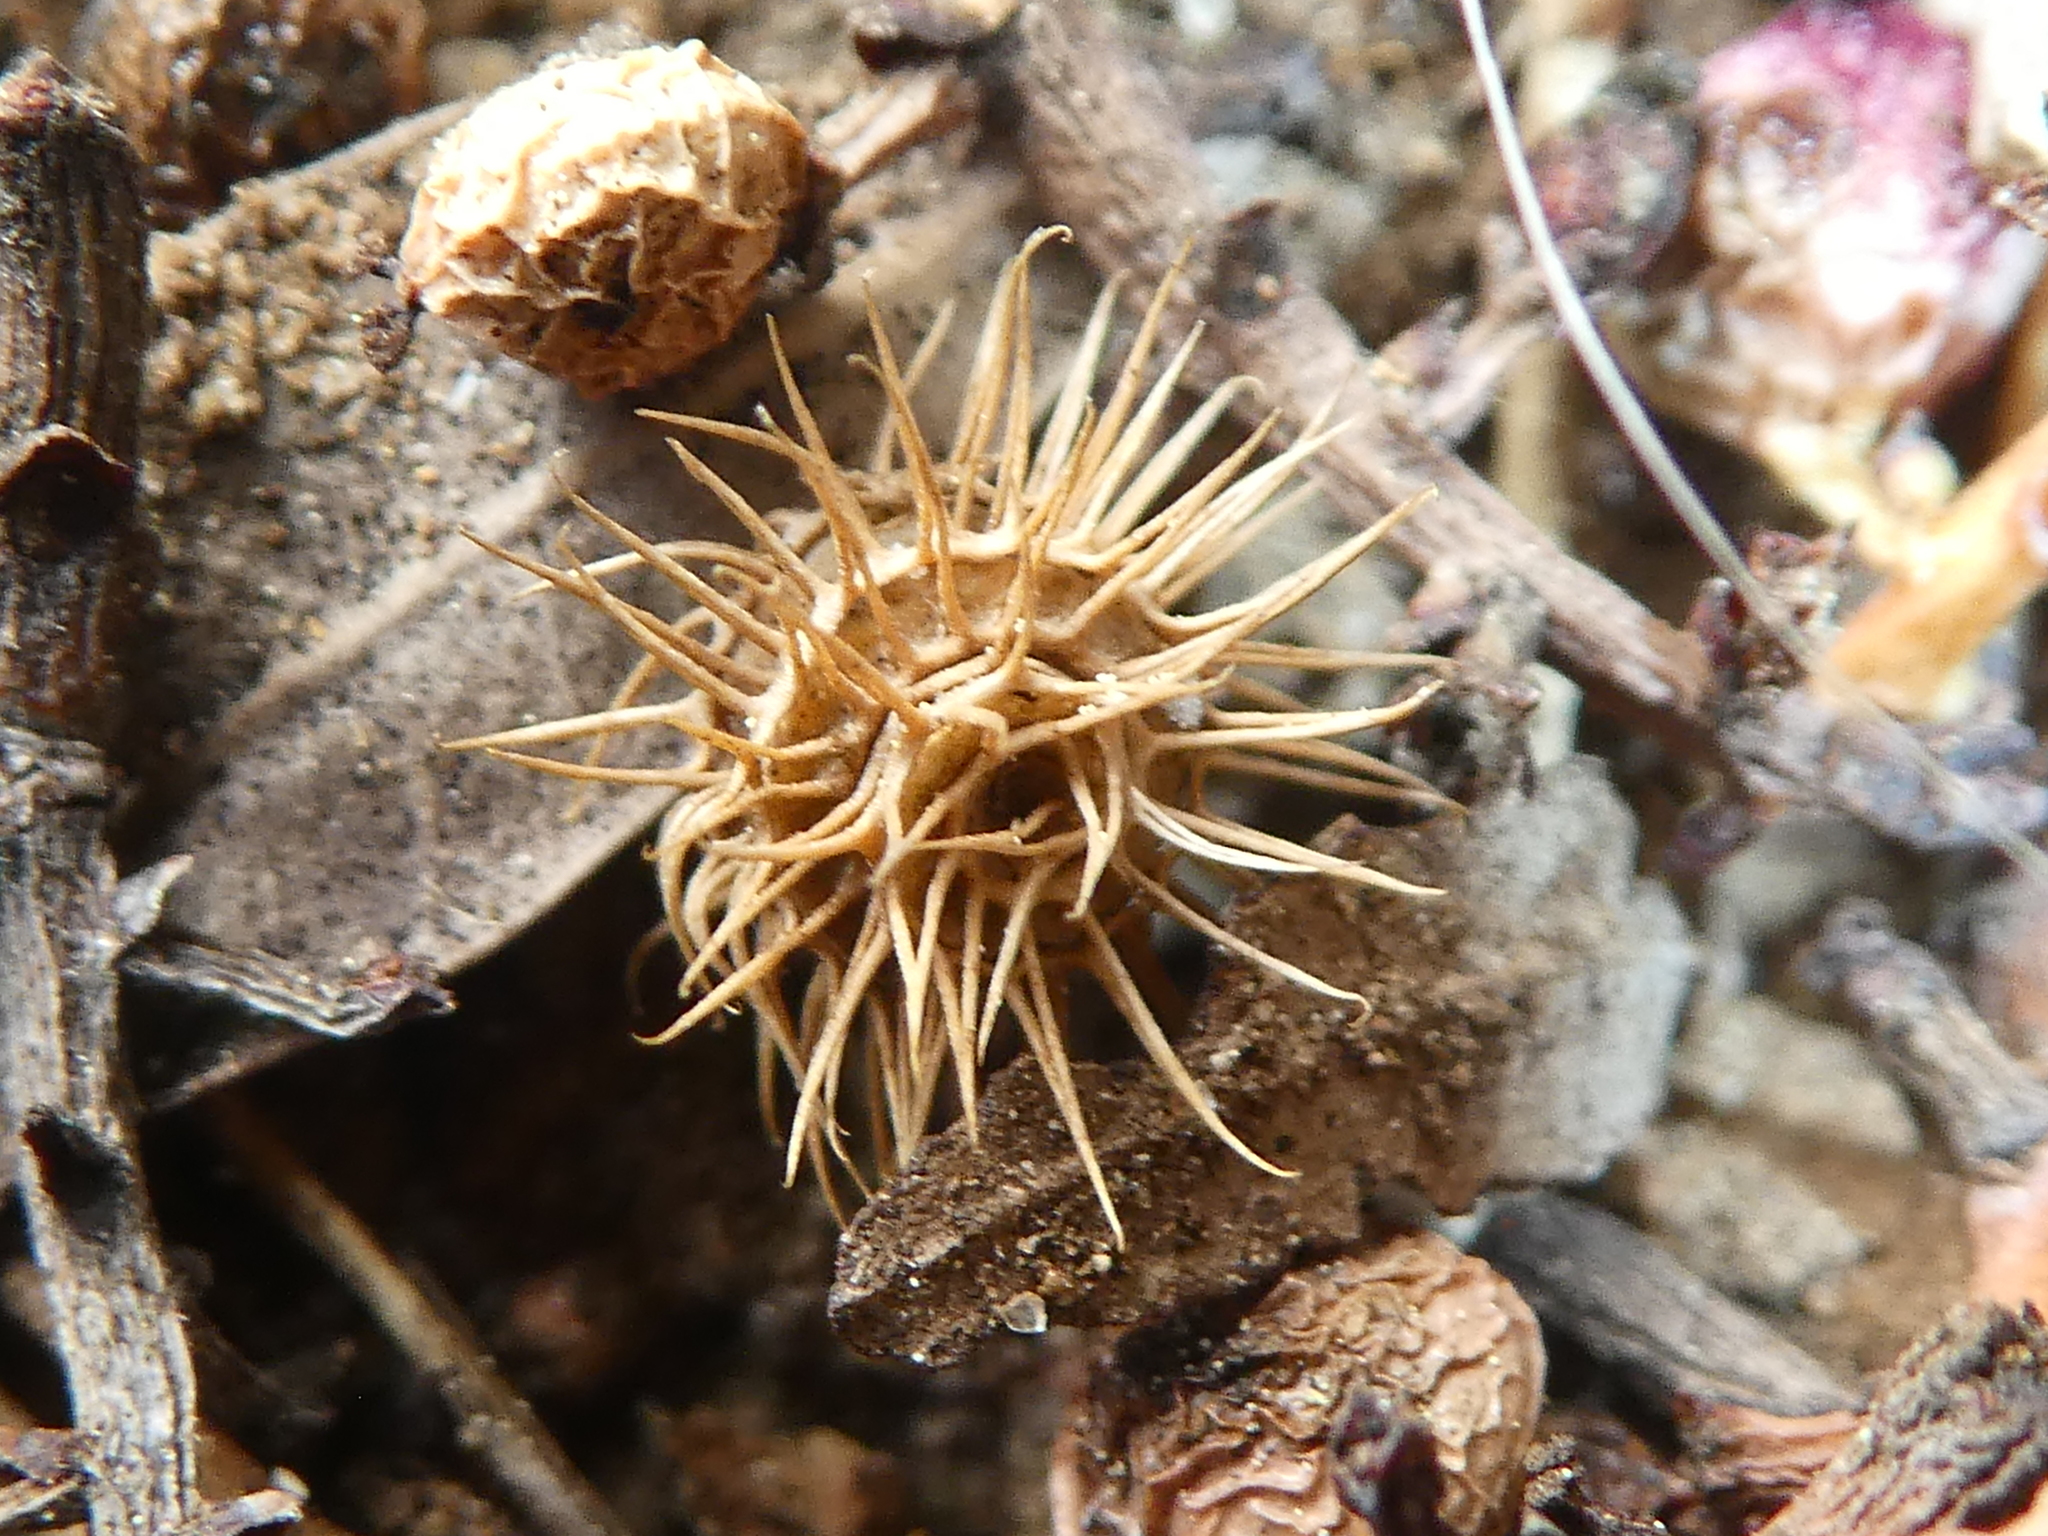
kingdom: Plantae
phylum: Tracheophyta
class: Magnoliopsida
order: Fabales
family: Fabaceae
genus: Medicago
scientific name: Medicago minima
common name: Little bur-clover
